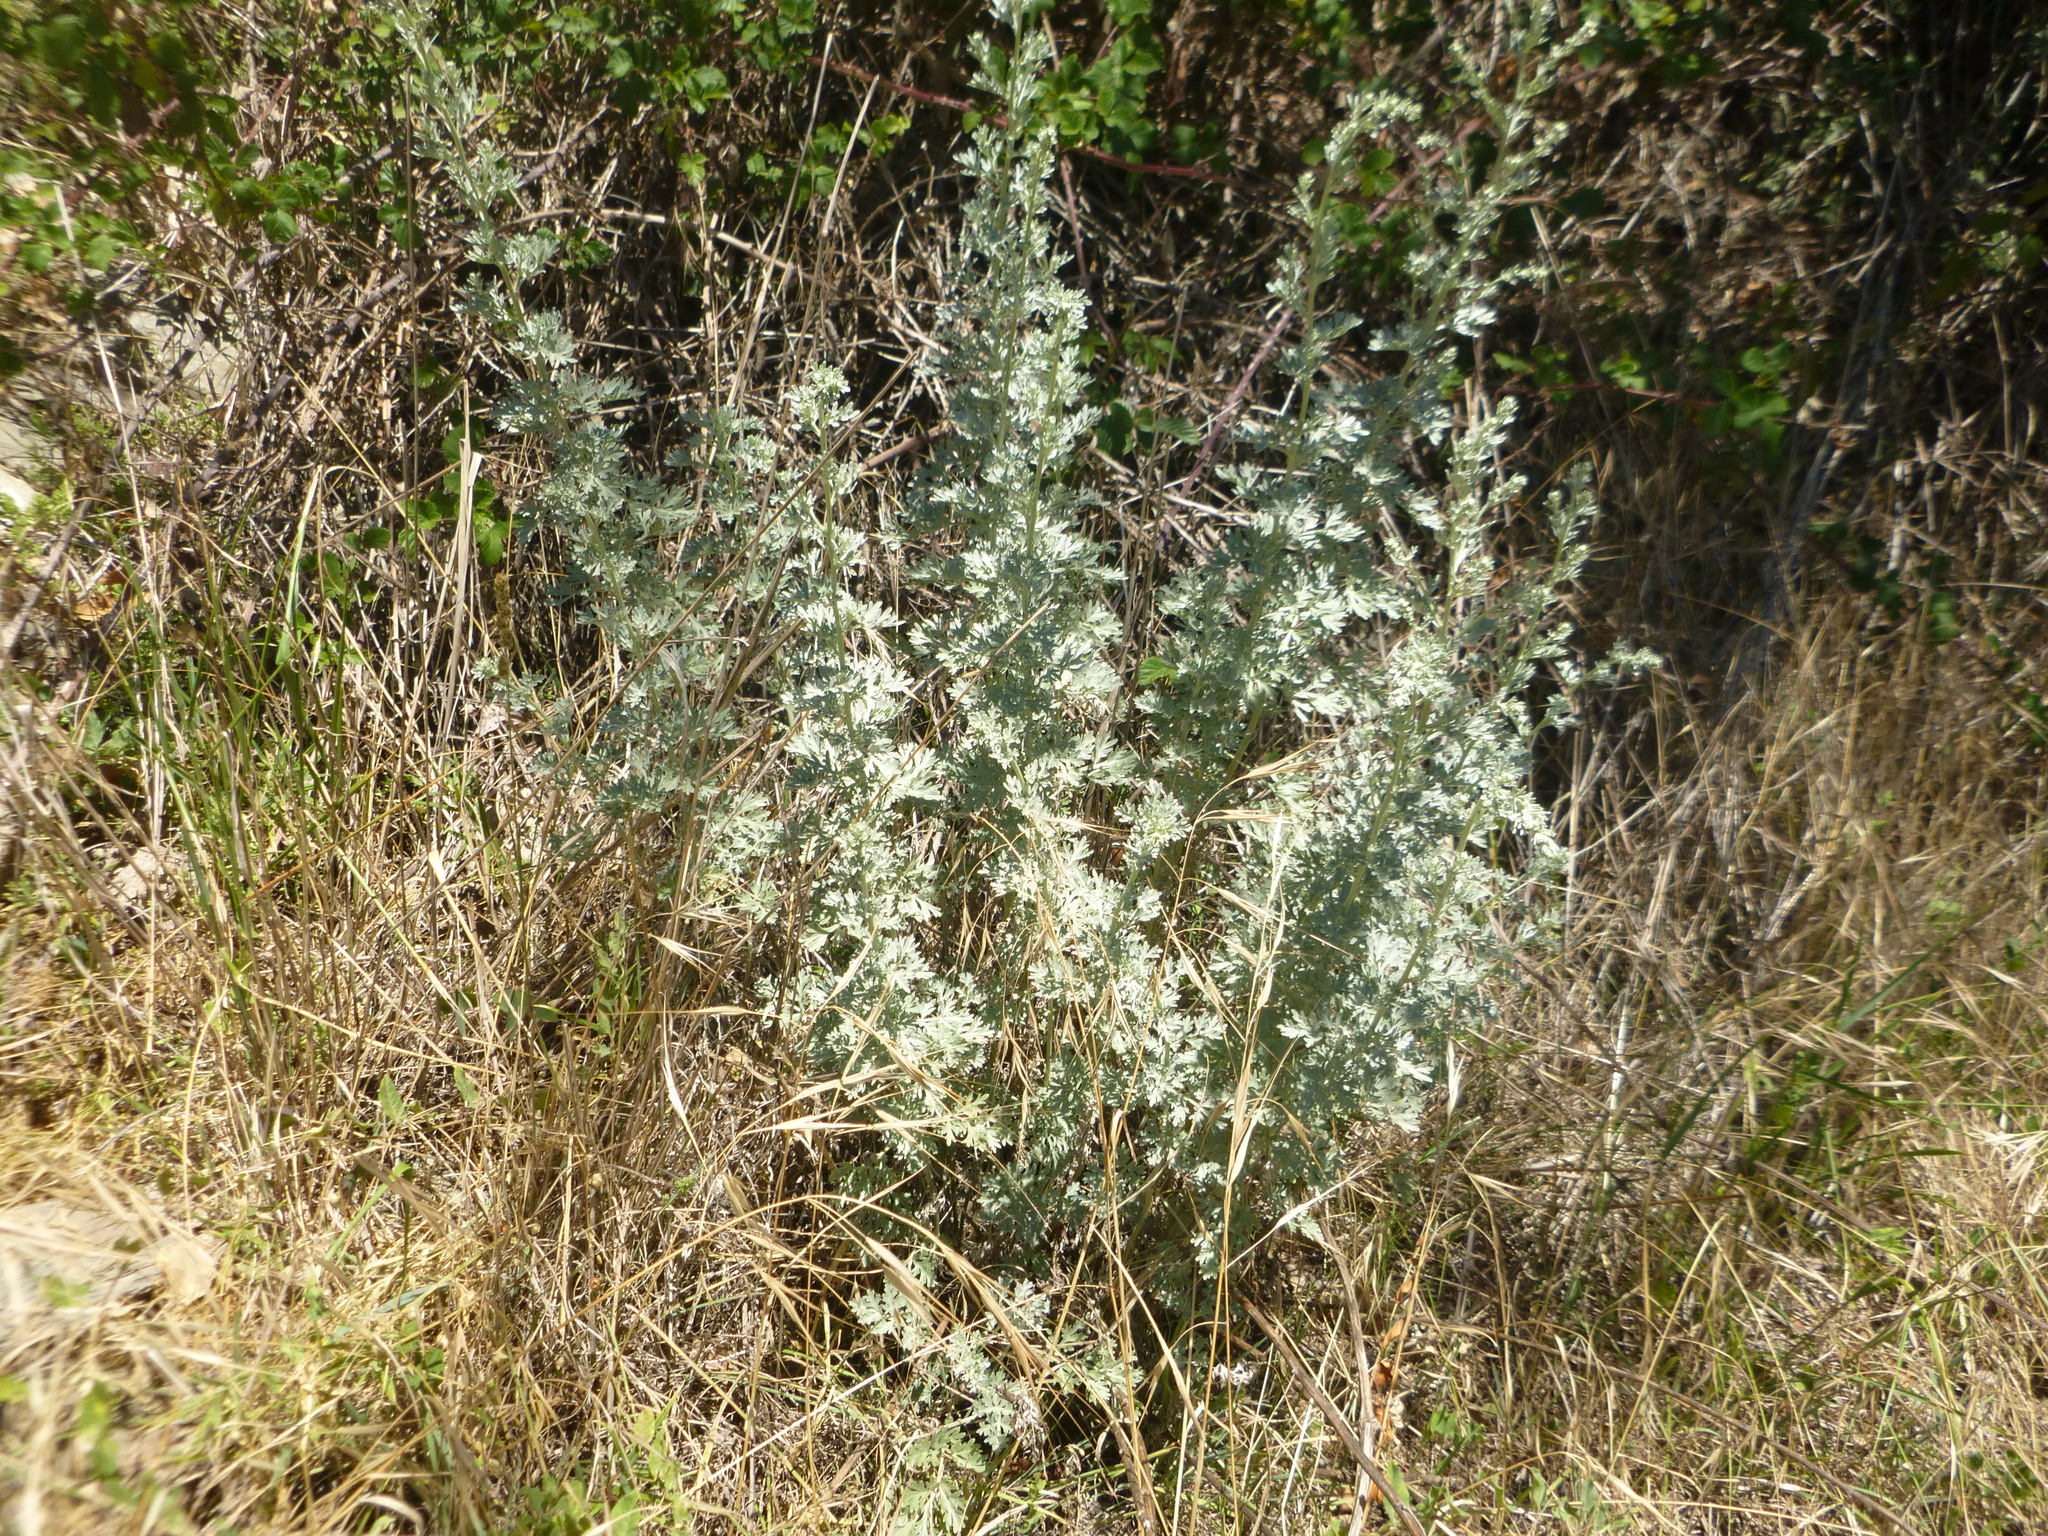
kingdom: Plantae
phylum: Tracheophyta
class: Magnoliopsida
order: Asterales
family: Asteraceae
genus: Artemisia
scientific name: Artemisia absinthium
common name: Wormwood
